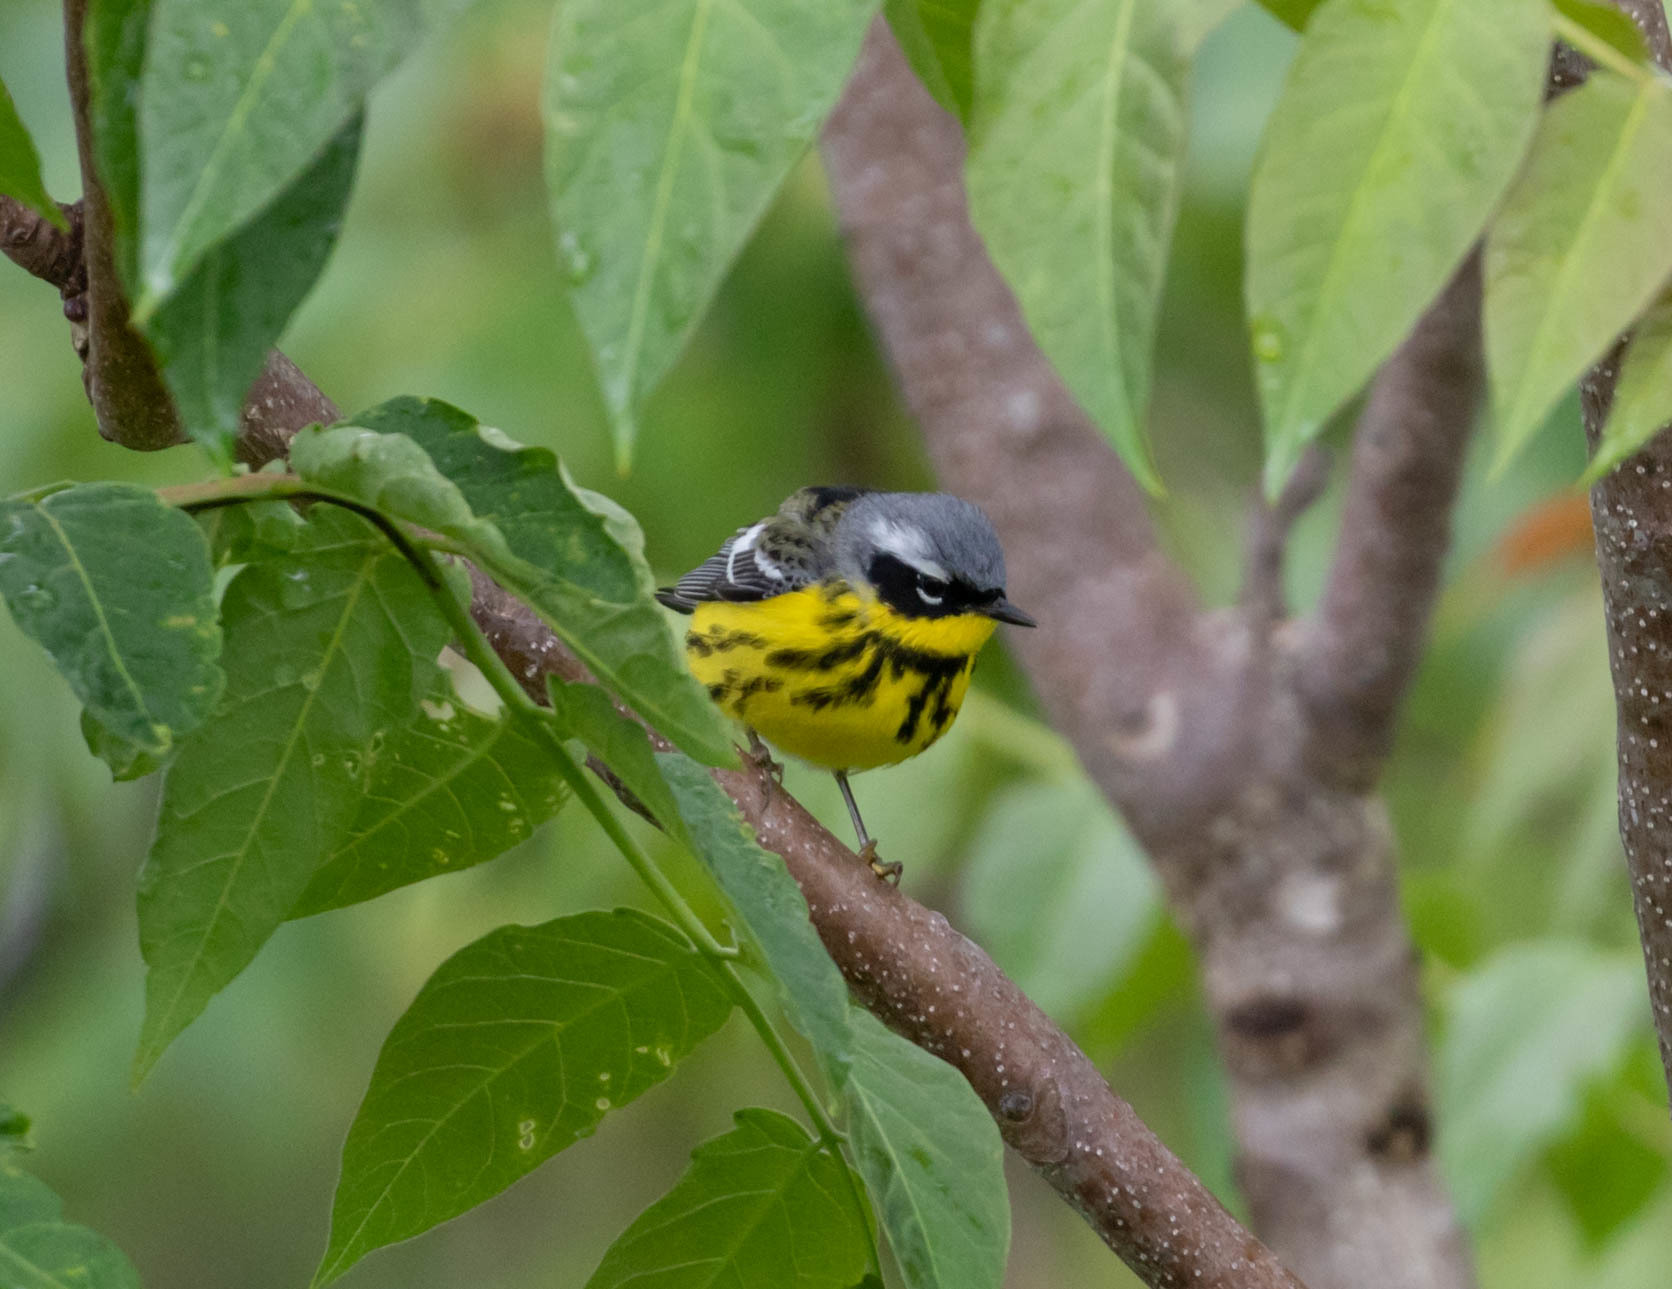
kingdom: Animalia
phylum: Chordata
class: Aves
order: Passeriformes
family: Parulidae
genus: Setophaga
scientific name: Setophaga magnolia
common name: Magnolia warbler
